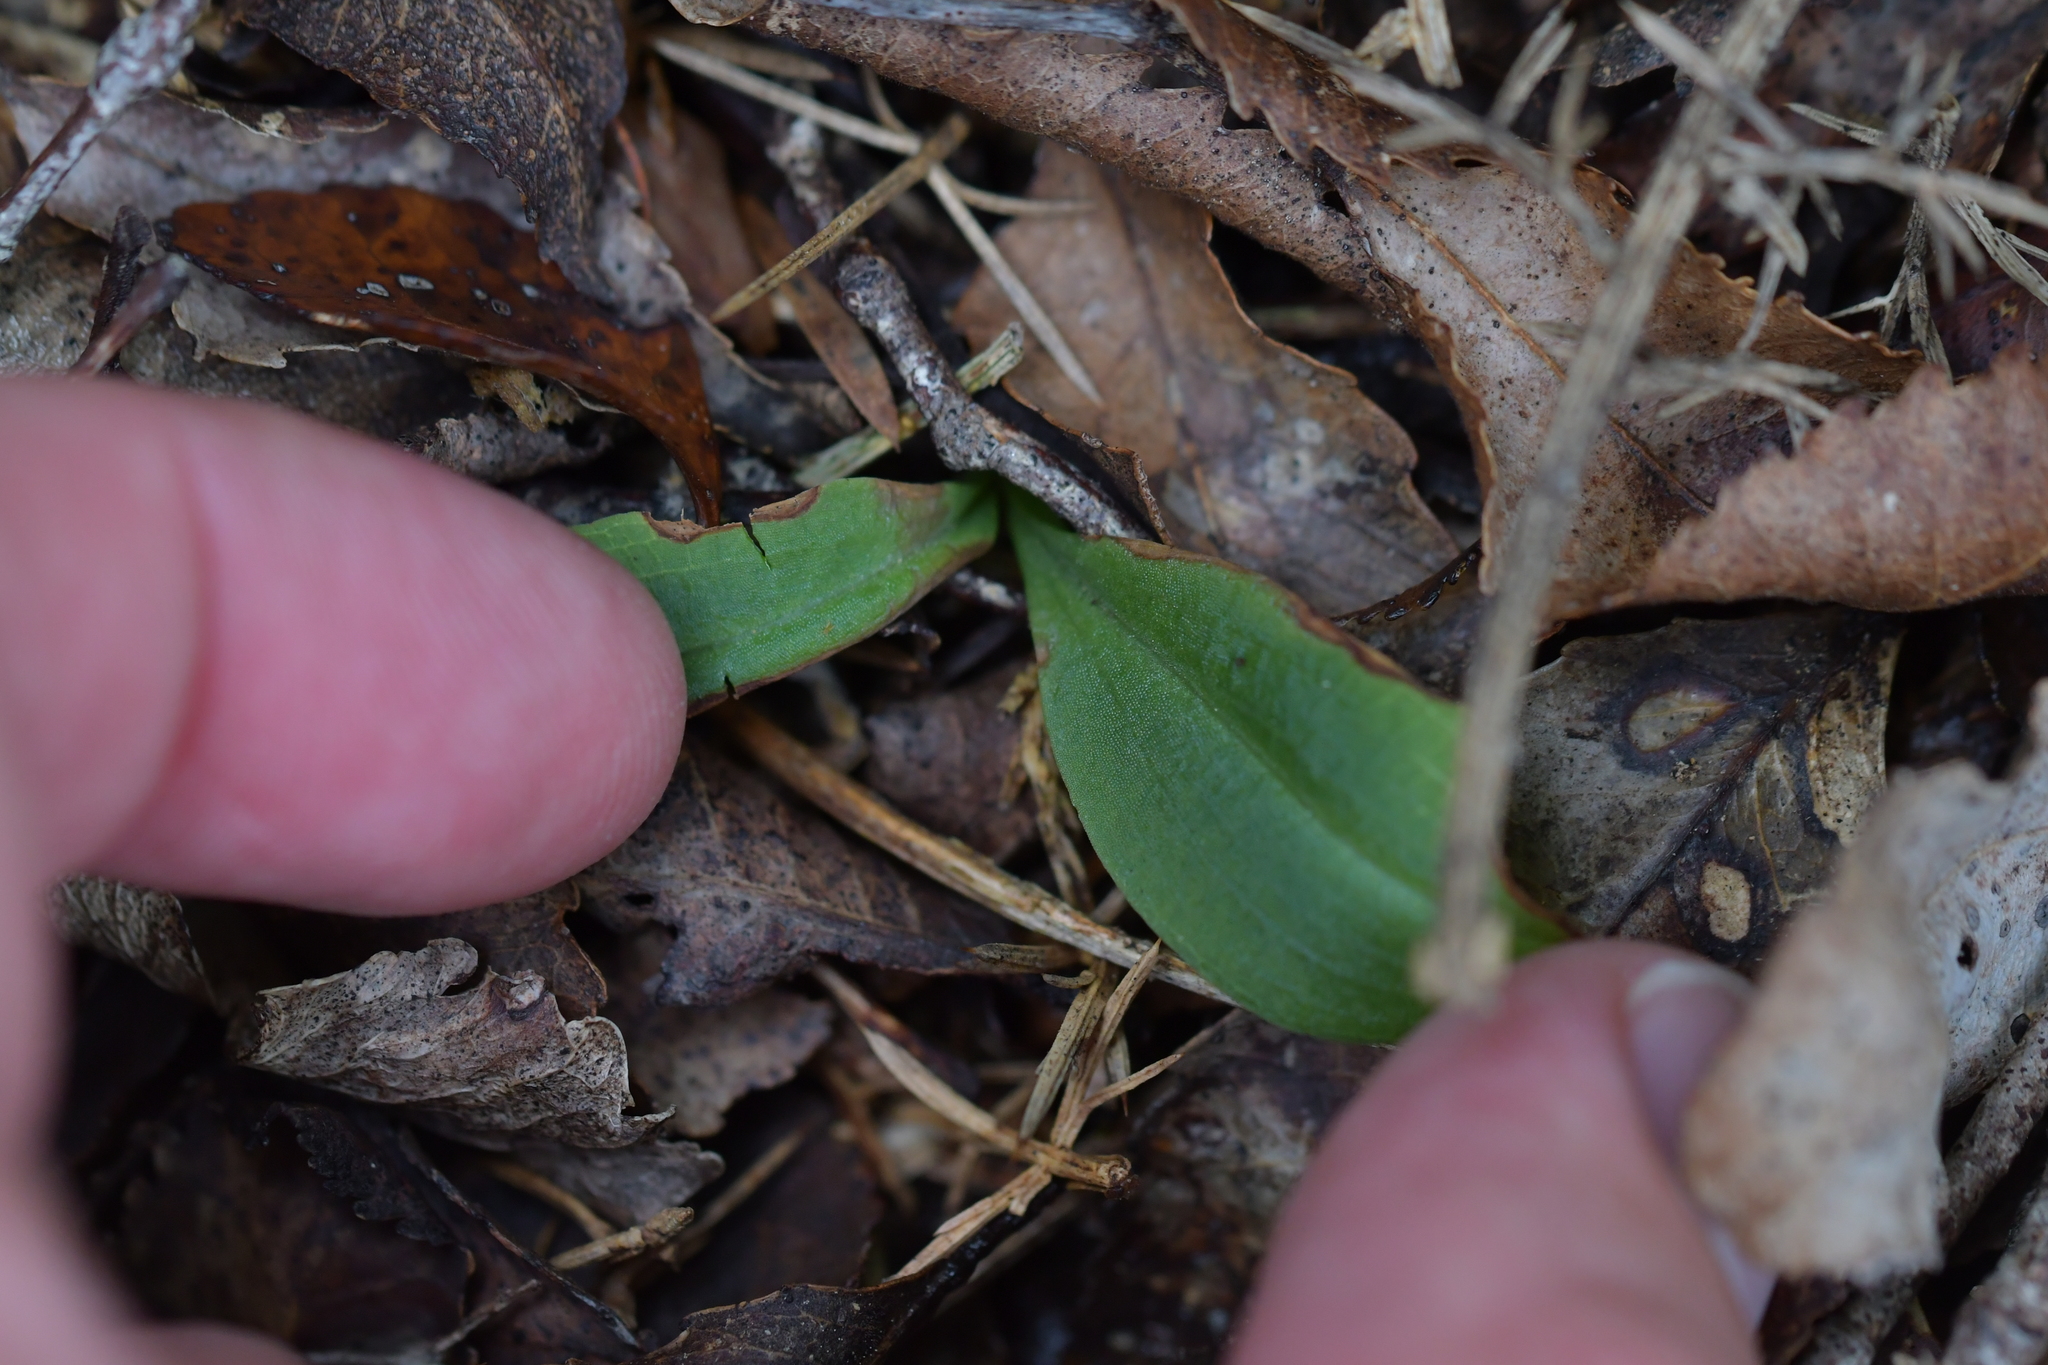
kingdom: Plantae
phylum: Tracheophyta
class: Liliopsida
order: Asparagales
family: Orchidaceae
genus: Chiloglottis
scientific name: Chiloglottis cornuta
